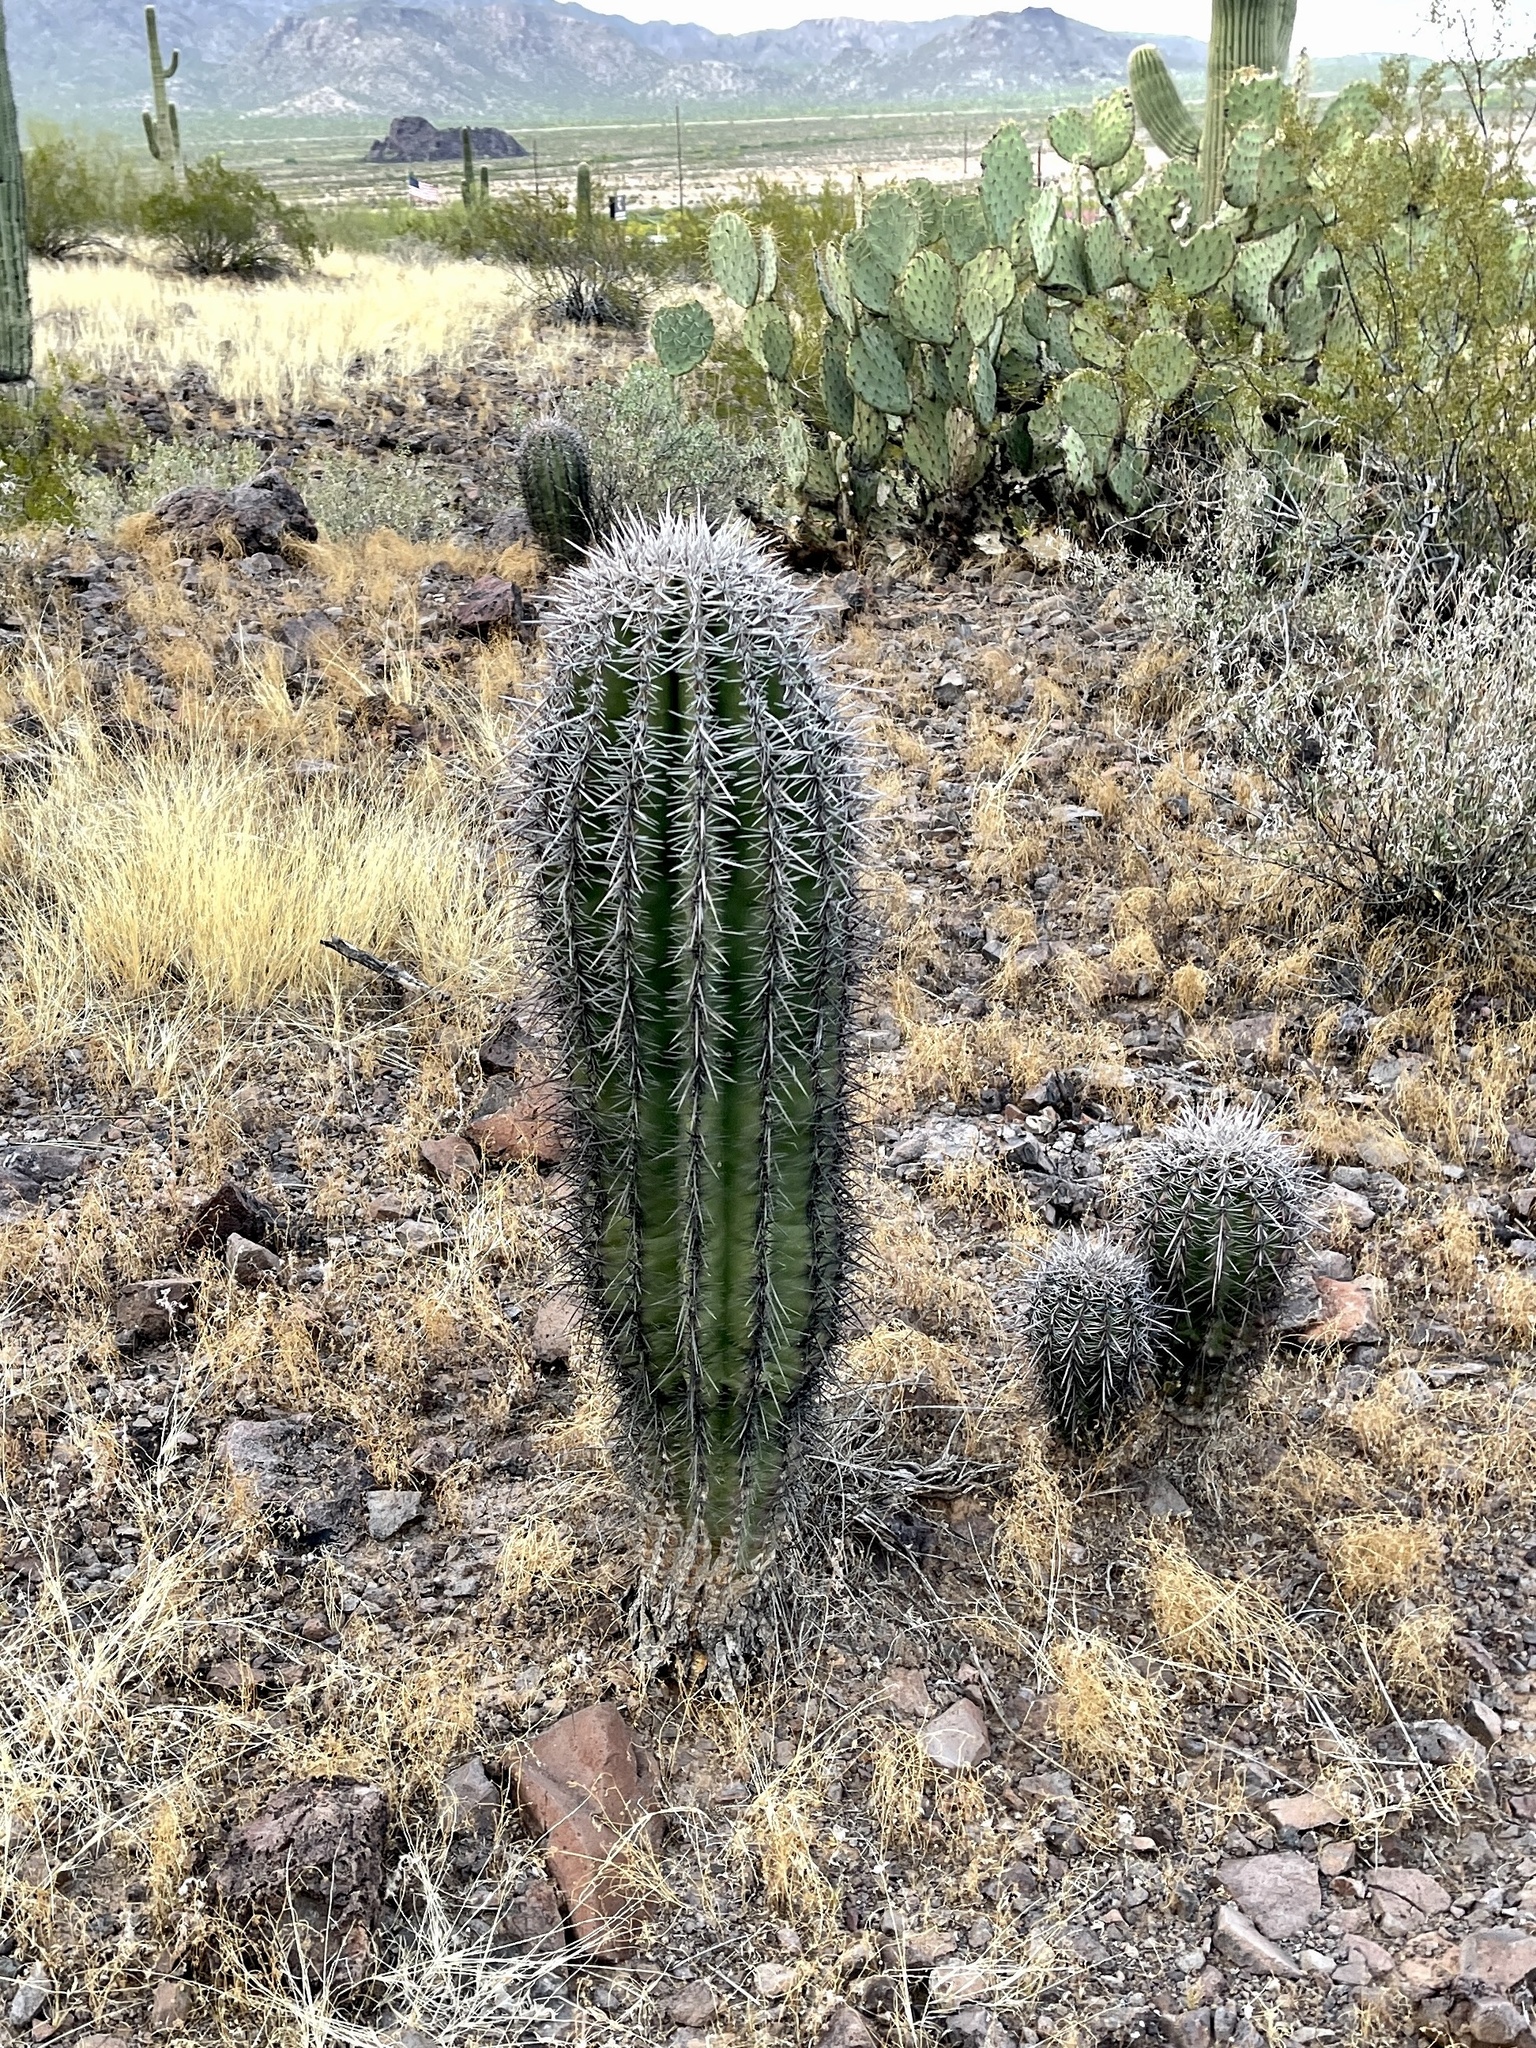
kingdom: Plantae
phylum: Tracheophyta
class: Magnoliopsida
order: Caryophyllales
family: Cactaceae
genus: Carnegiea
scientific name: Carnegiea gigantea
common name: Saguaro
